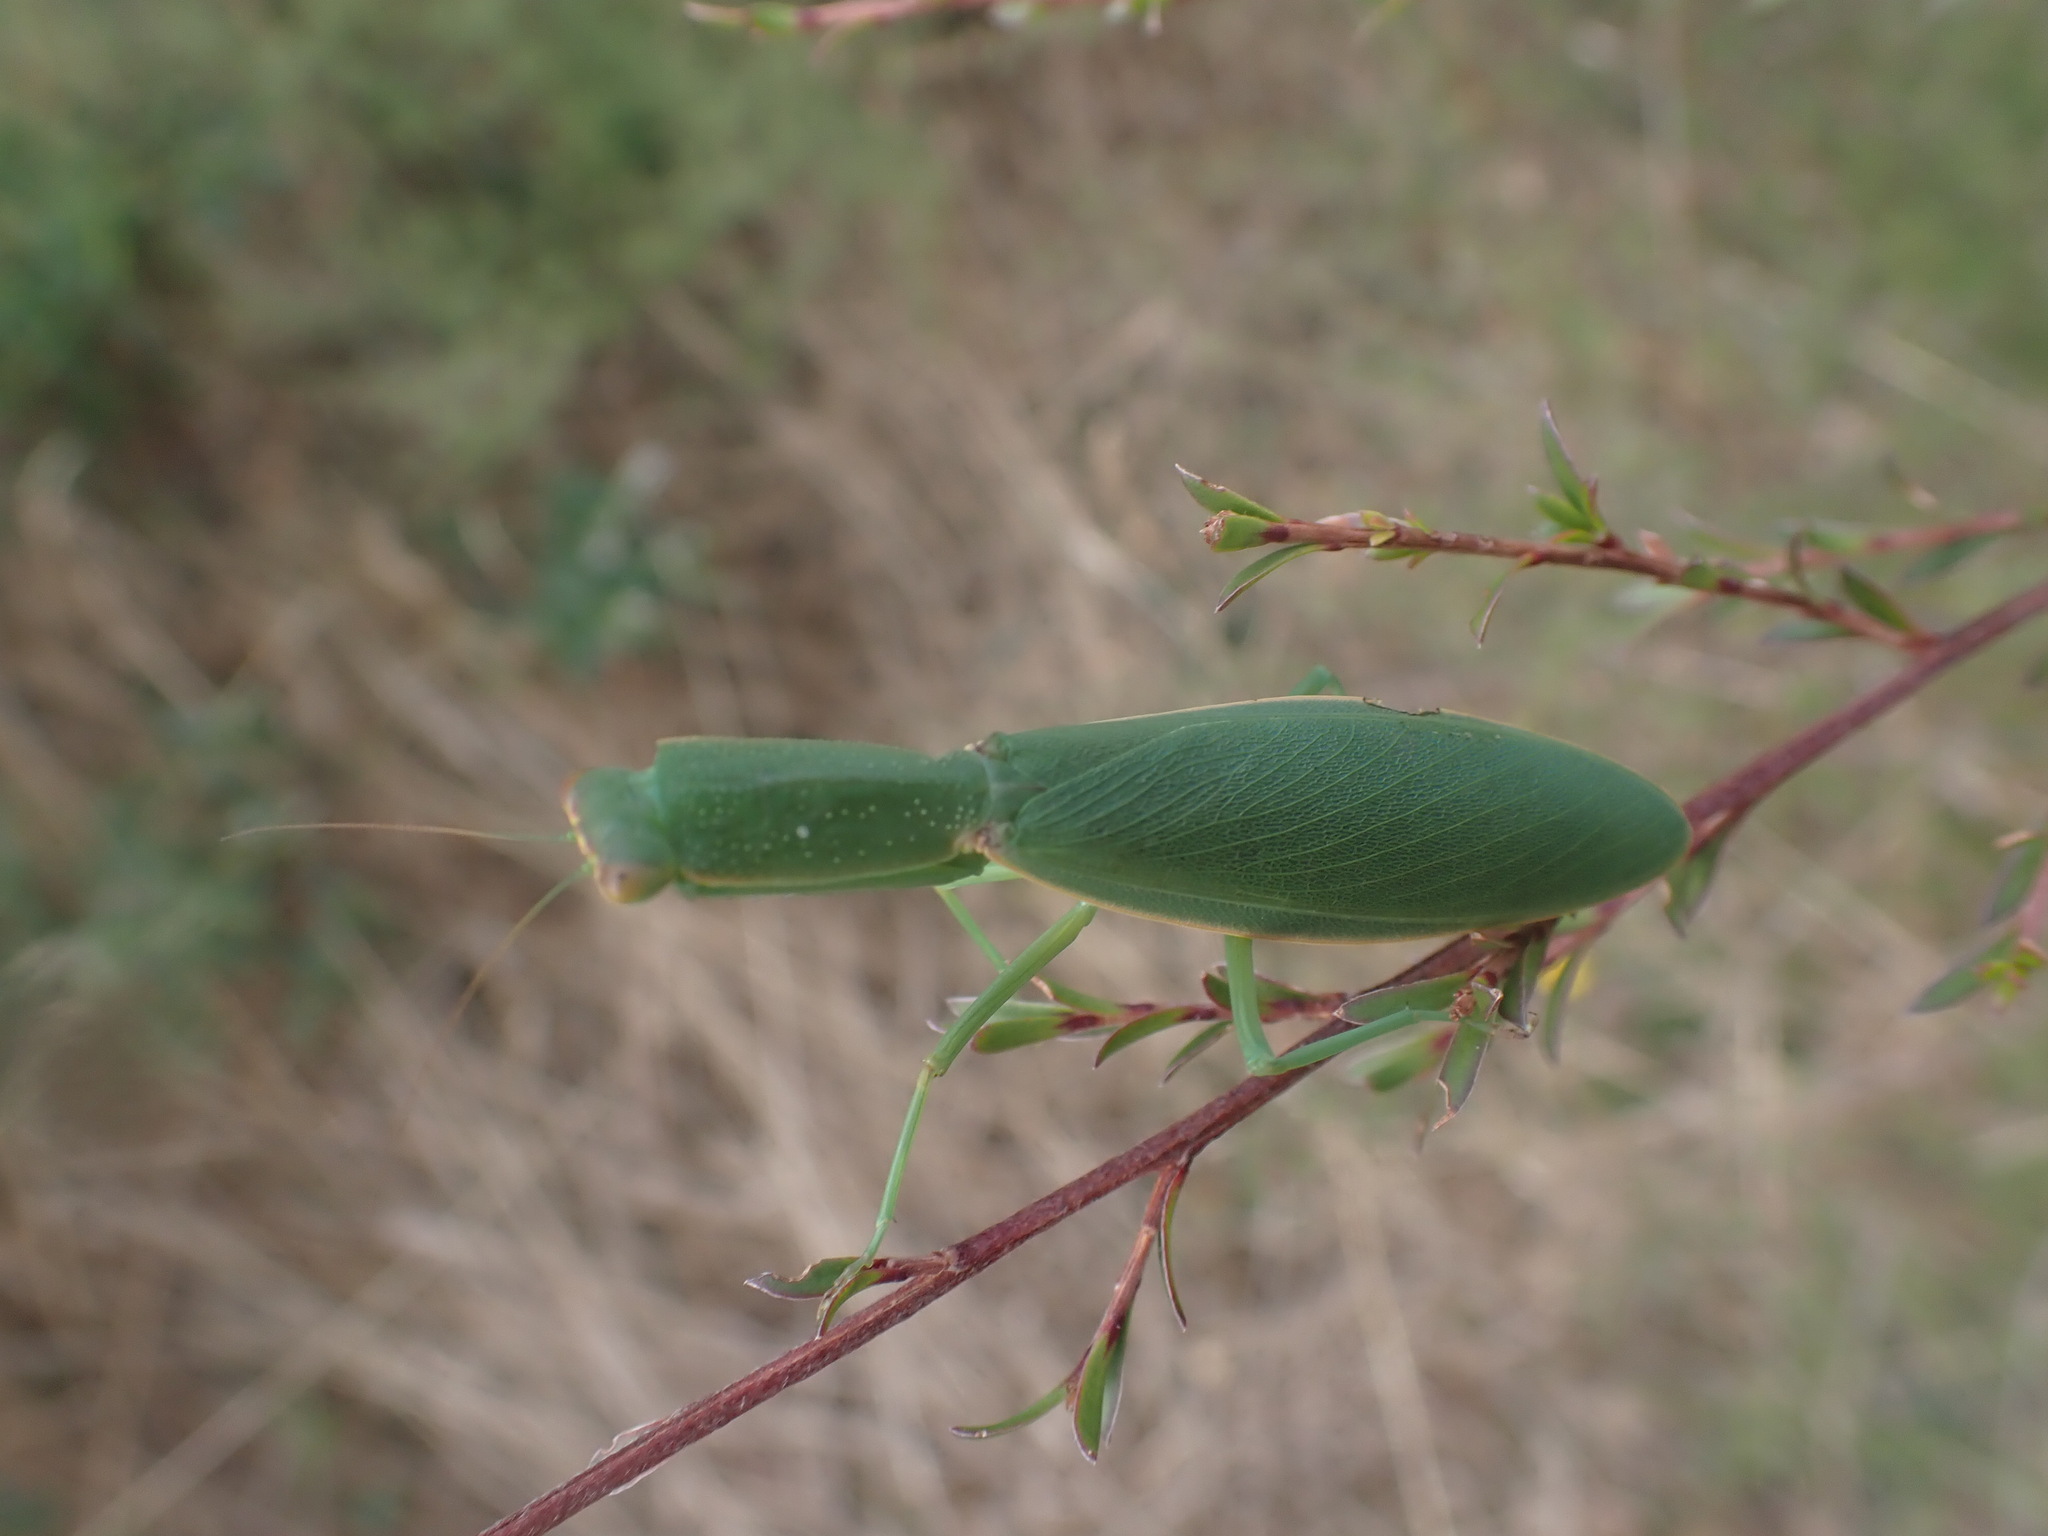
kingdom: Animalia
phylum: Arthropoda
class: Insecta
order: Mantodea
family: Mantidae
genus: Orthodera
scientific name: Orthodera novaezealandiae
